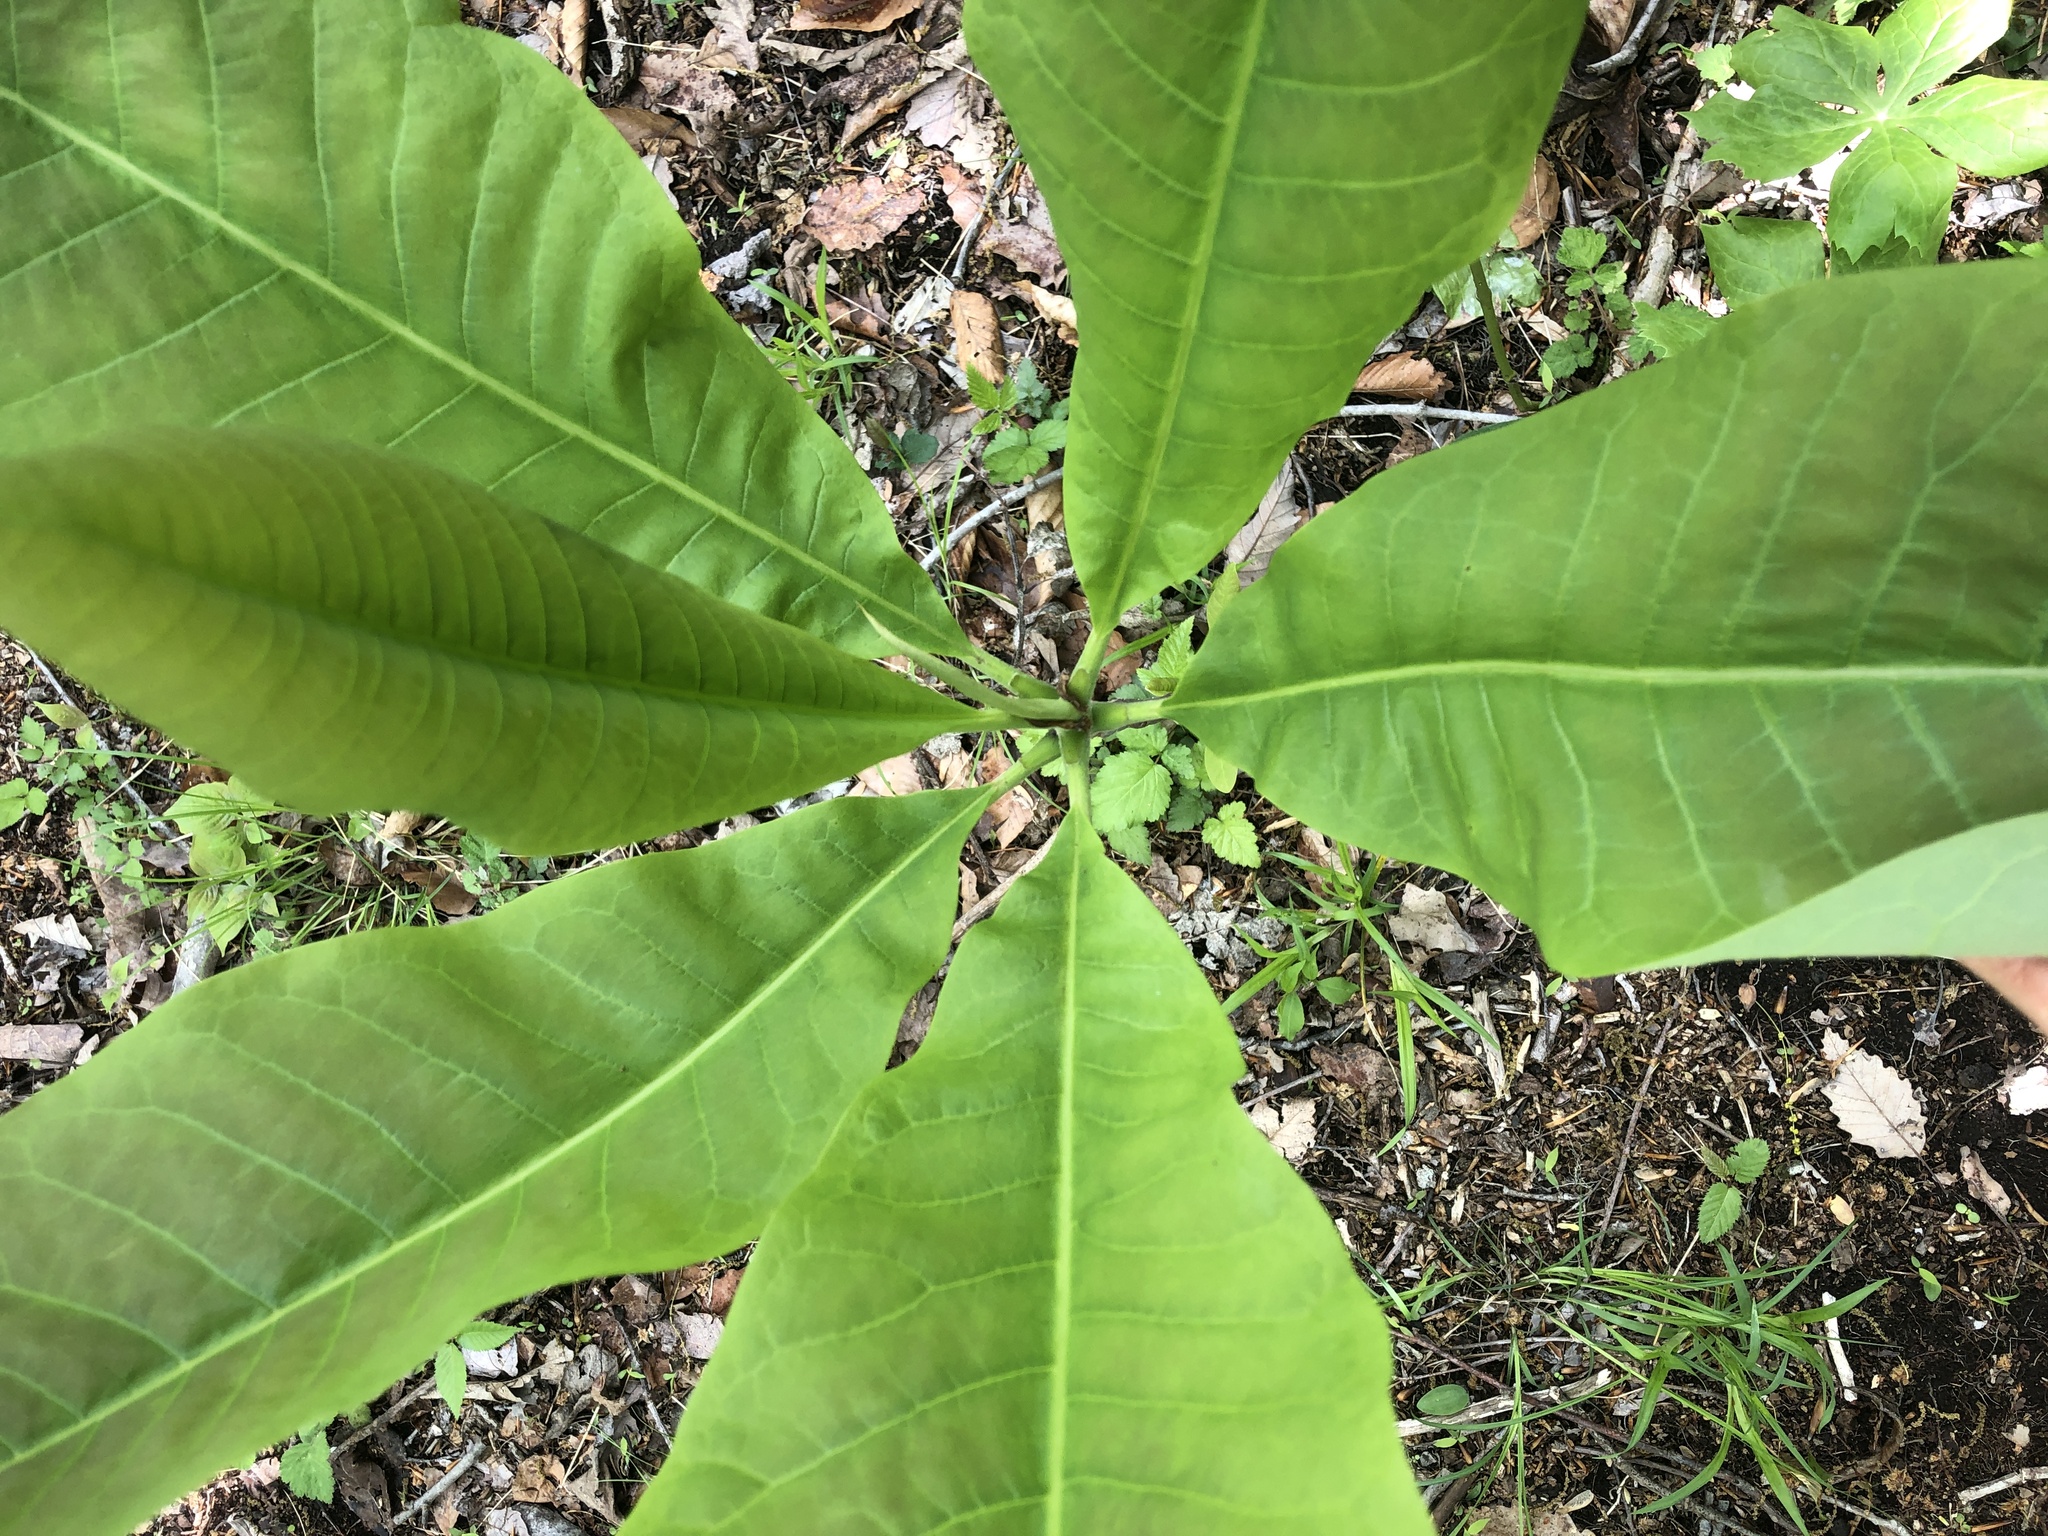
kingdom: Plantae
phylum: Tracheophyta
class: Magnoliopsida
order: Magnoliales
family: Magnoliaceae
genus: Magnolia
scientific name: Magnolia tripetala
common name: Umbrella magnolia
